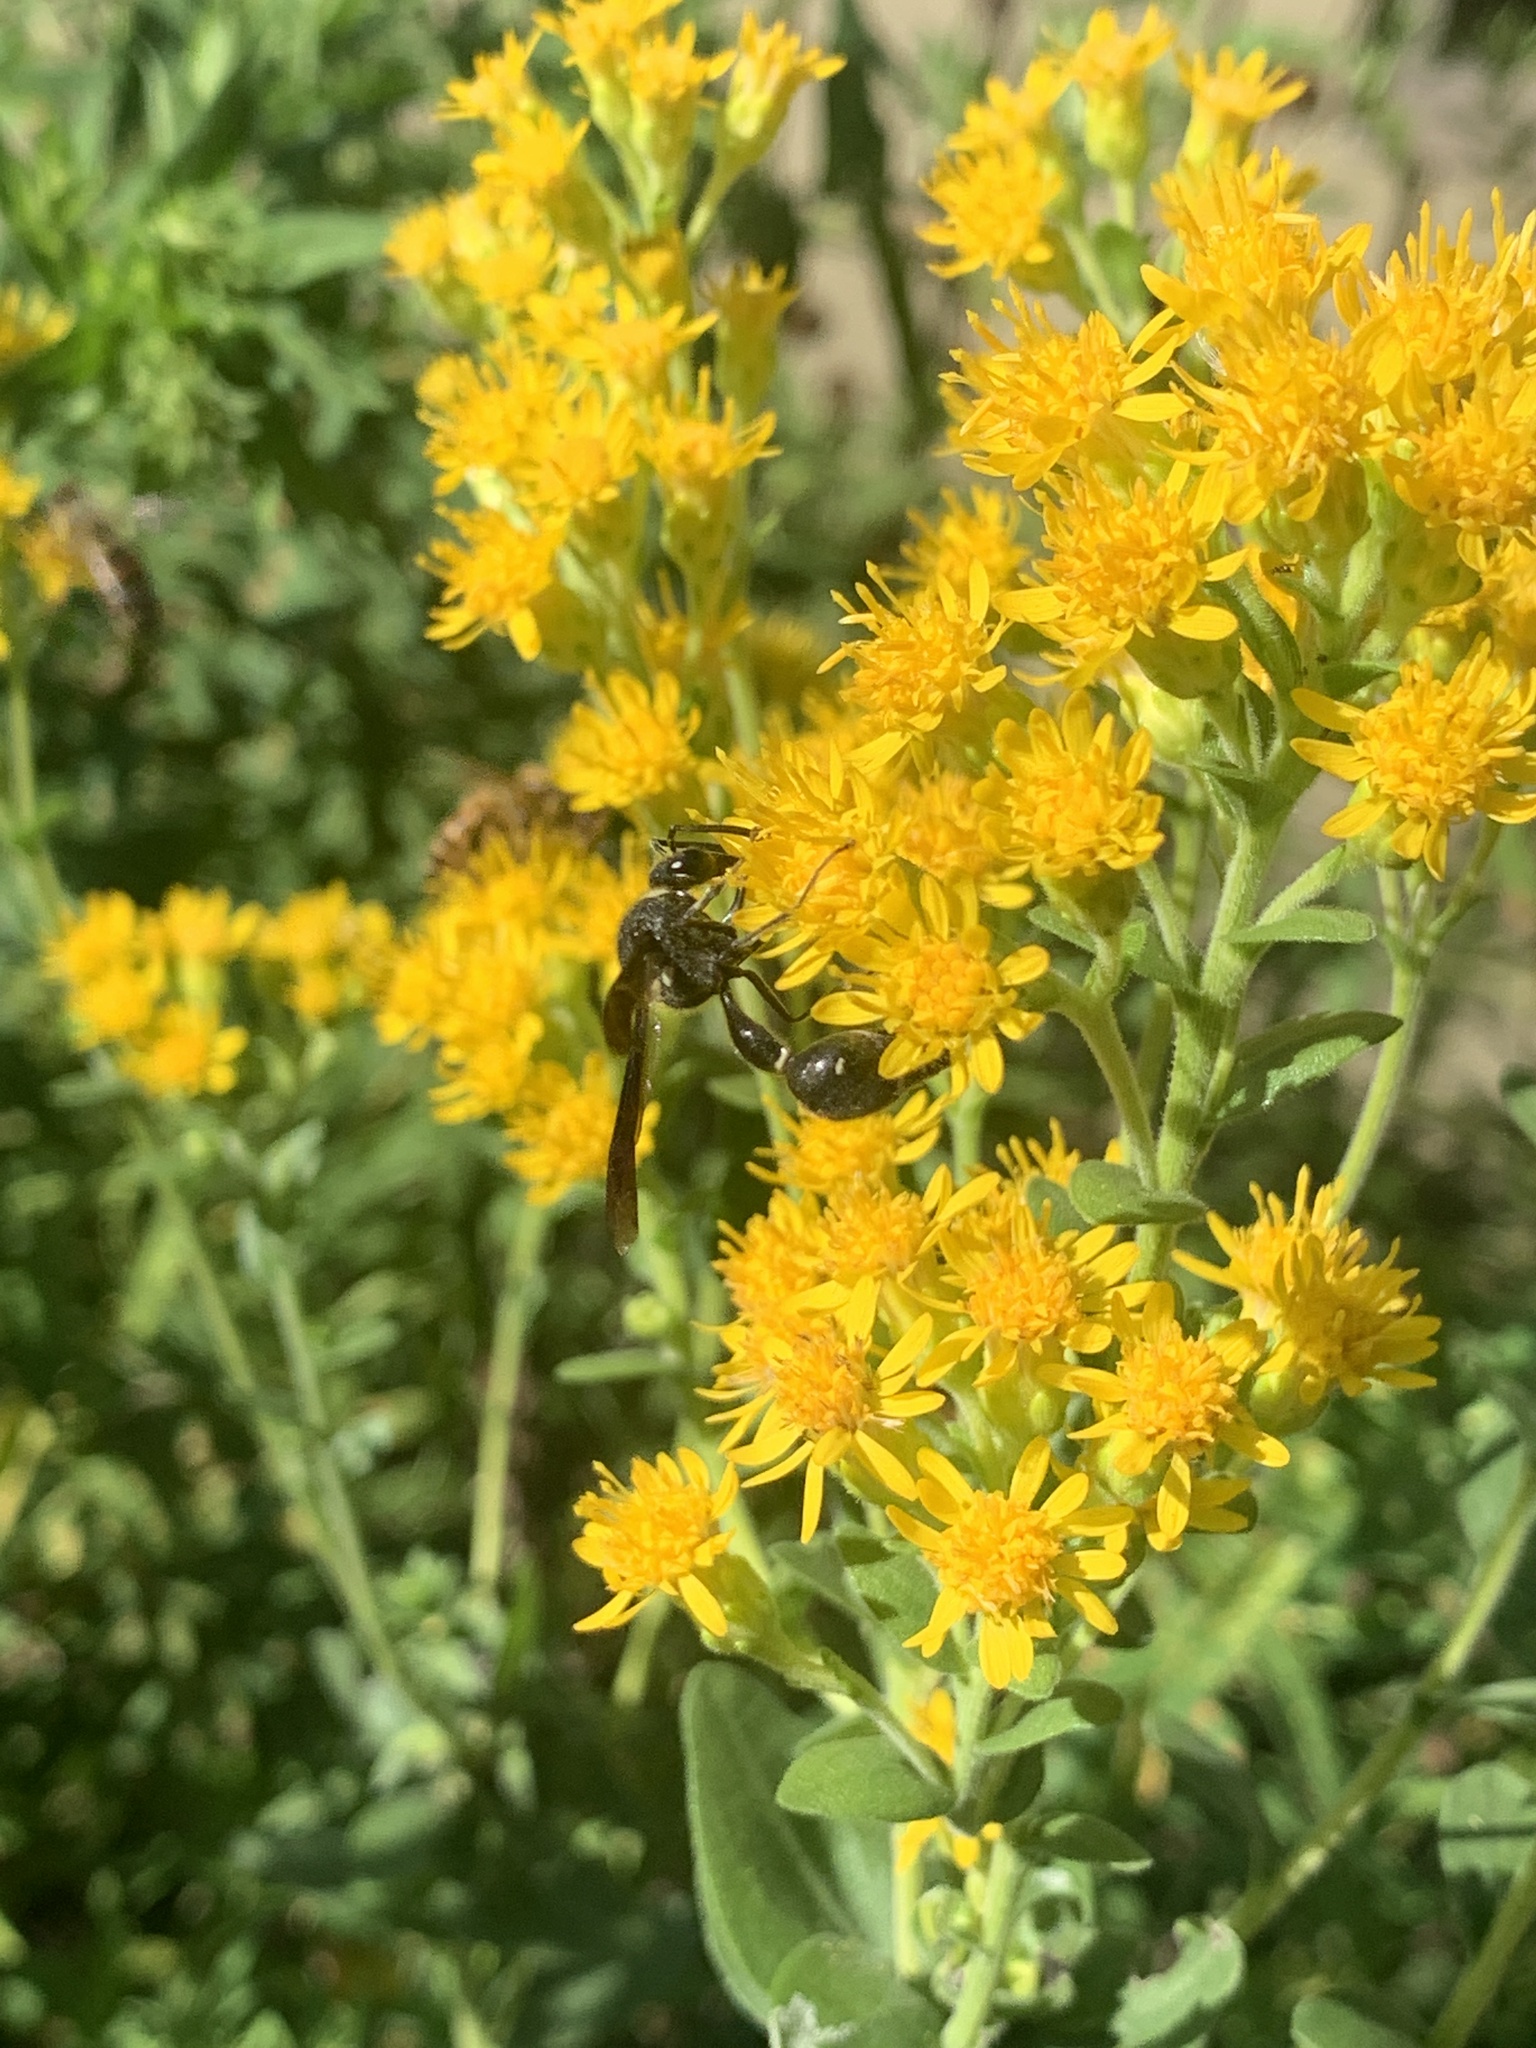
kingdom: Animalia
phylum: Arthropoda
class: Insecta
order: Hymenoptera
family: Vespidae
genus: Eumenes
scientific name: Eumenes fraternus
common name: Fraternal potter wasp
